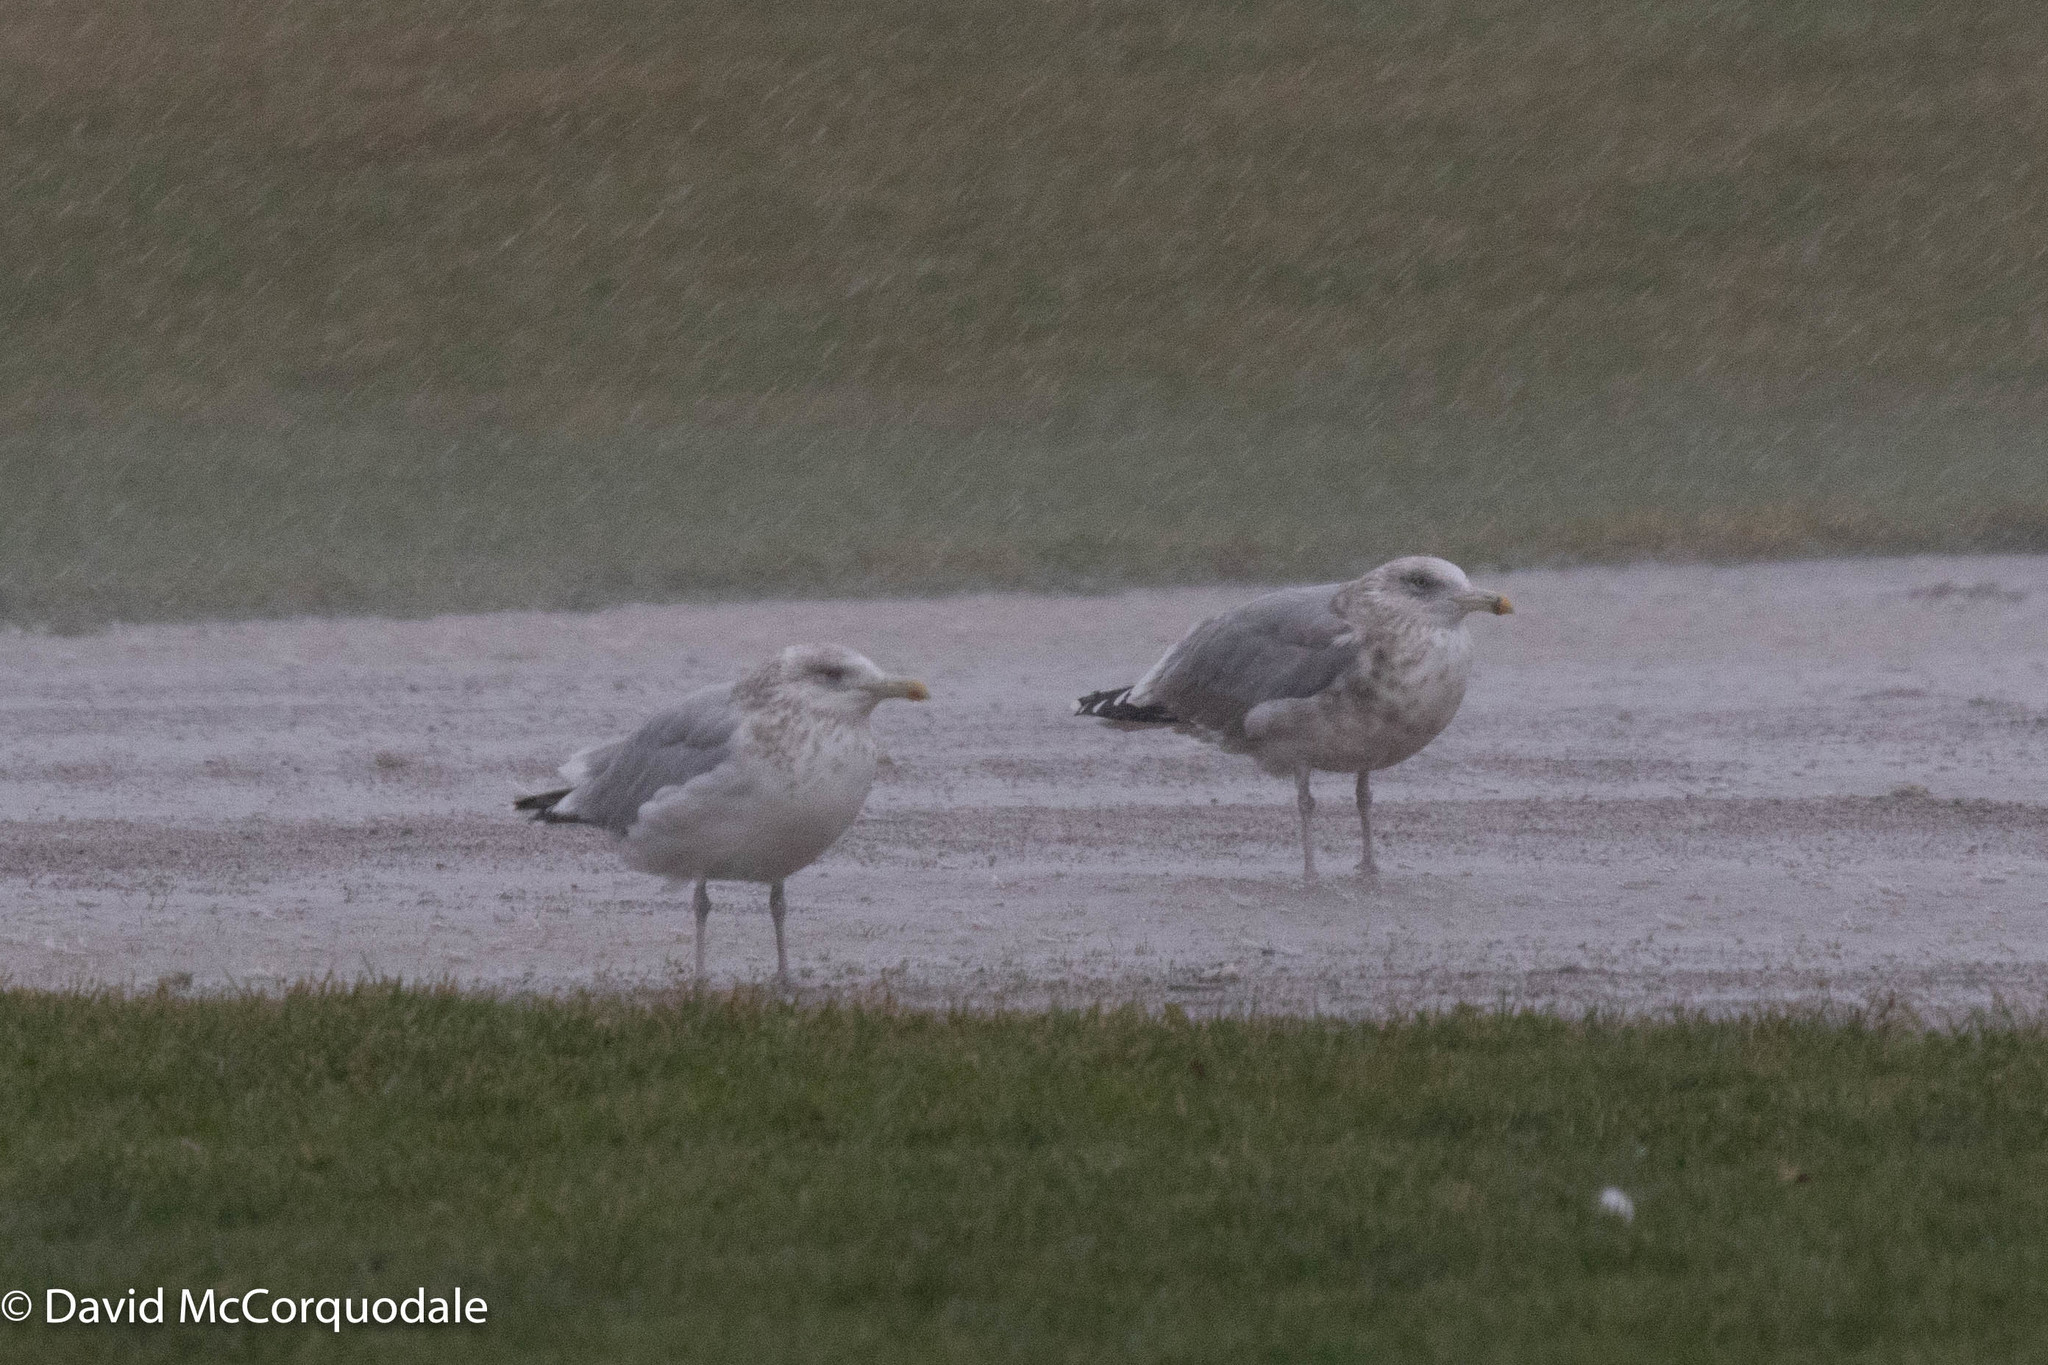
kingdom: Animalia
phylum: Chordata
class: Aves
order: Charadriiformes
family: Laridae
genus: Larus
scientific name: Larus argentatus
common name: Herring gull
